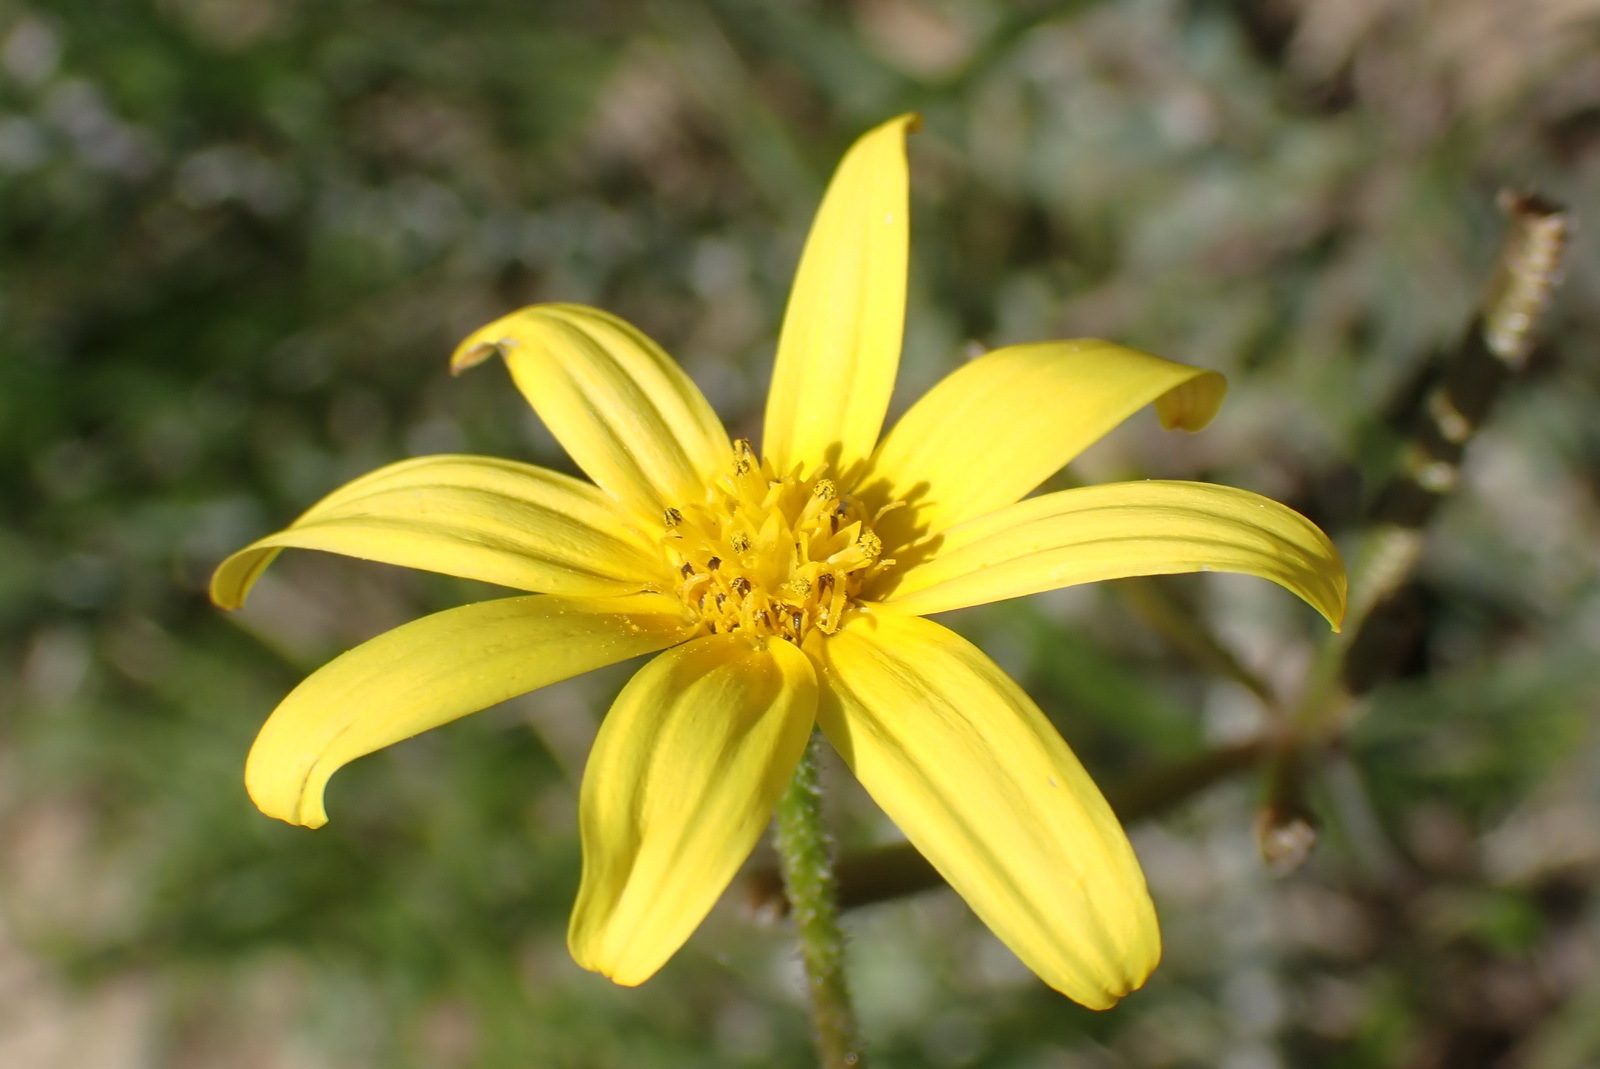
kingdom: Plantae
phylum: Tracheophyta
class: Magnoliopsida
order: Asterales
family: Asteraceae
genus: Osteospermum
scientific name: Osteospermum polygaloides
